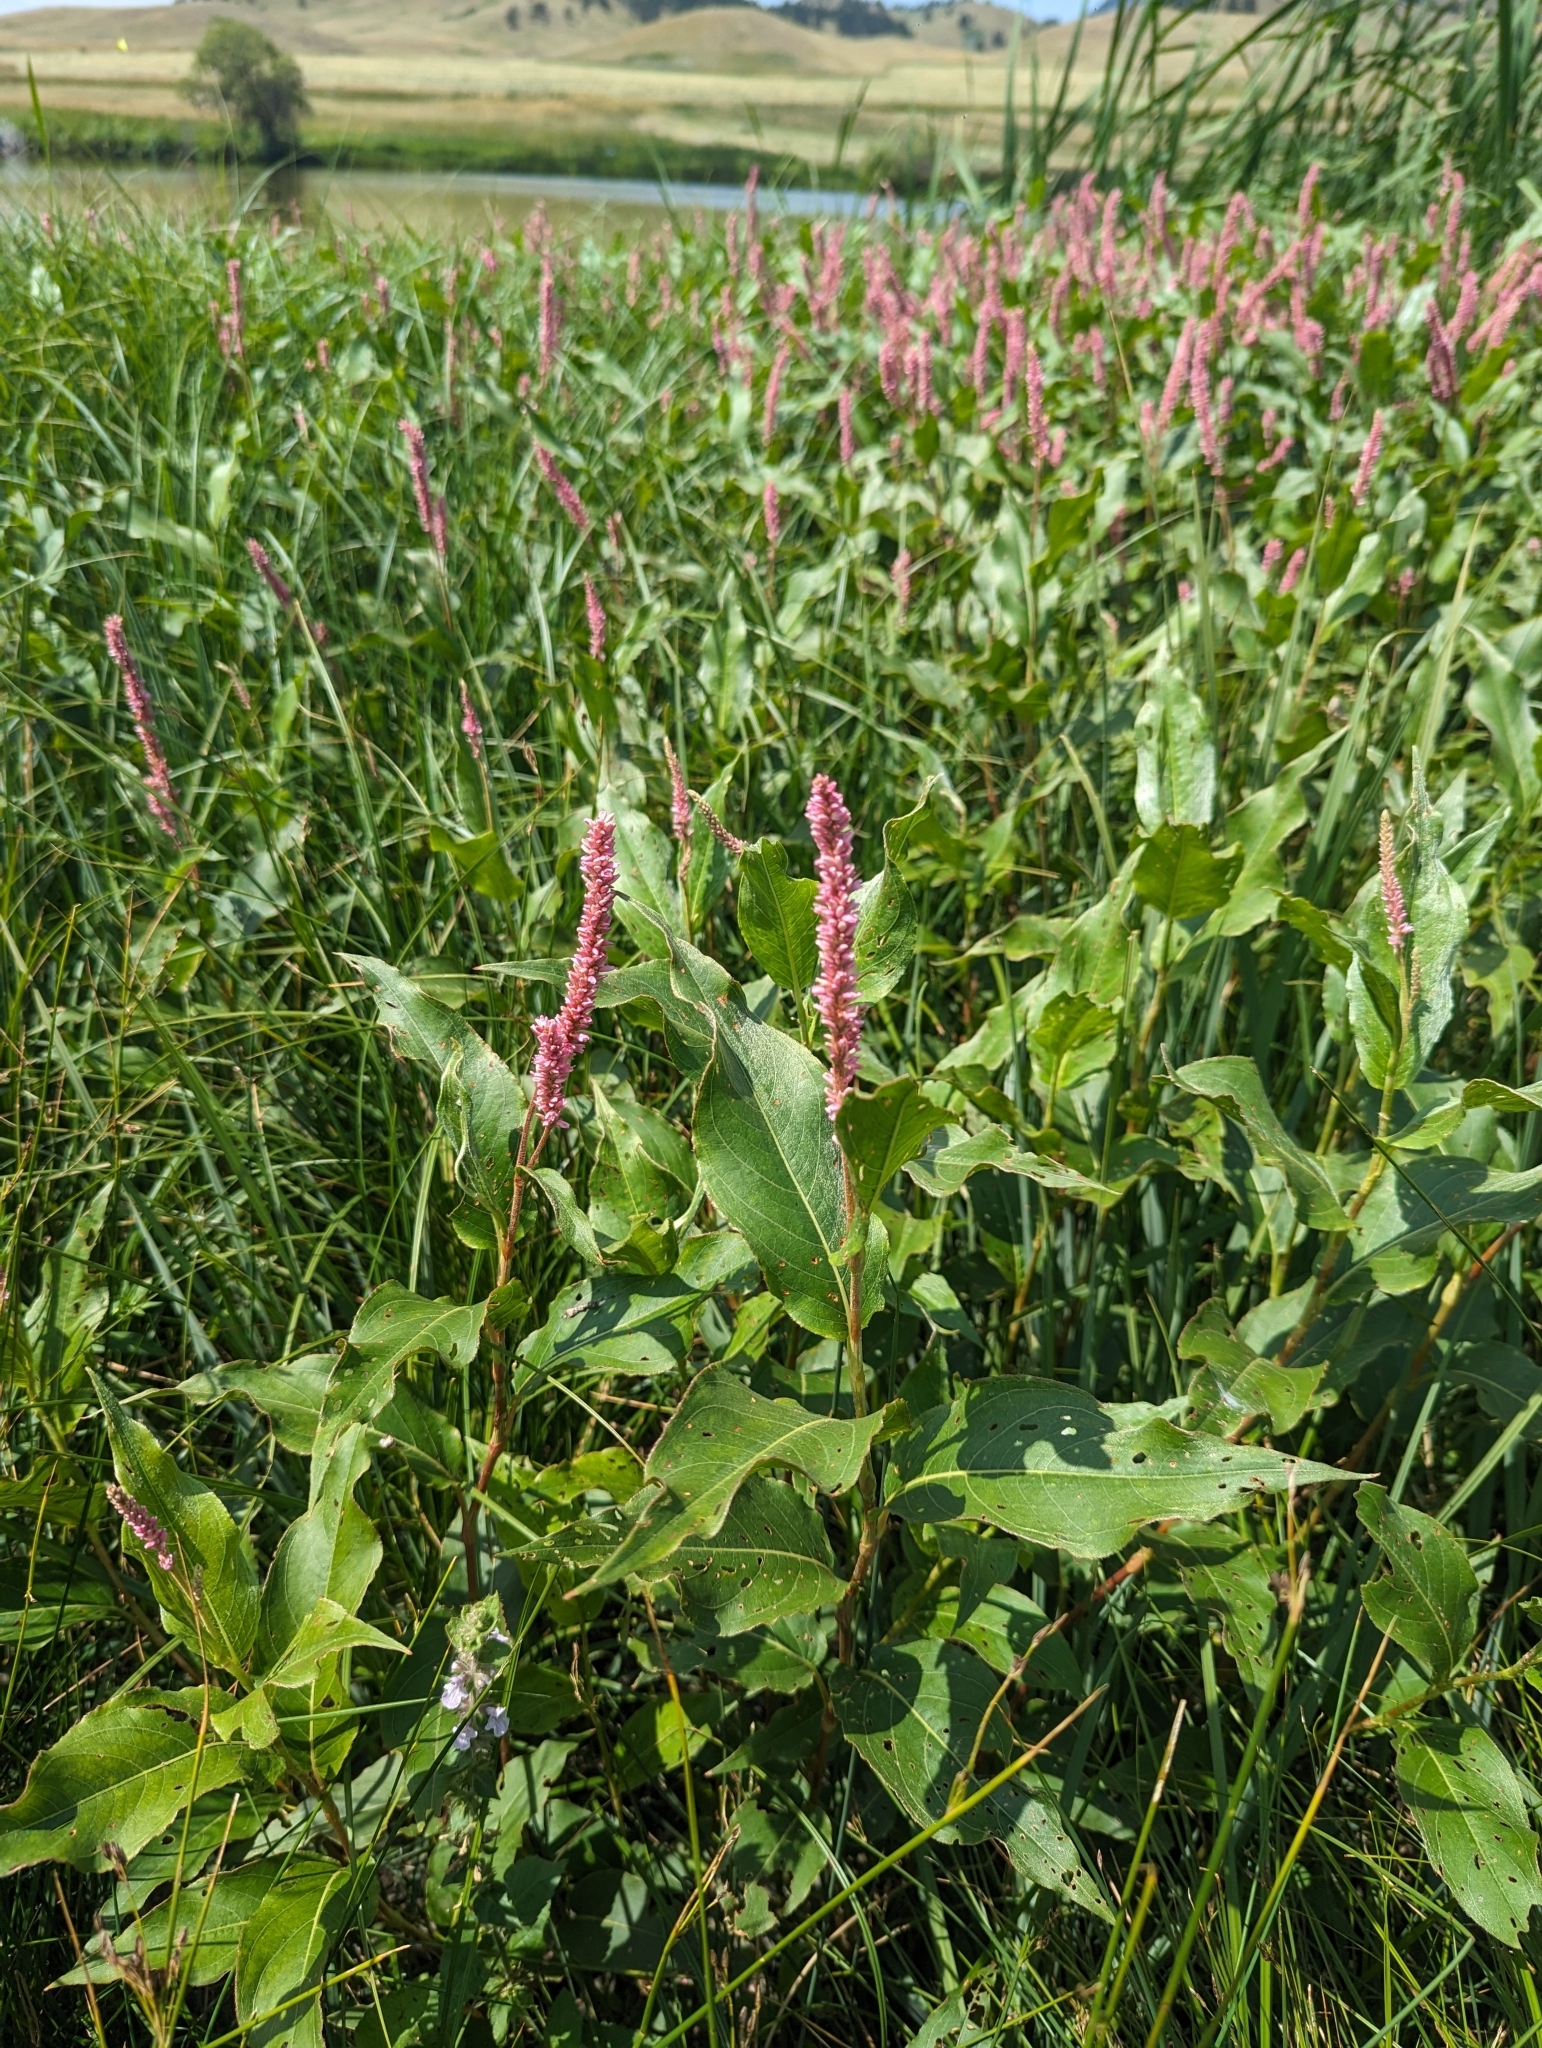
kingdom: Plantae
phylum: Tracheophyta
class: Magnoliopsida
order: Caryophyllales
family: Polygonaceae
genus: Persicaria
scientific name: Persicaria amphibia
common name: Amphibious bistort
